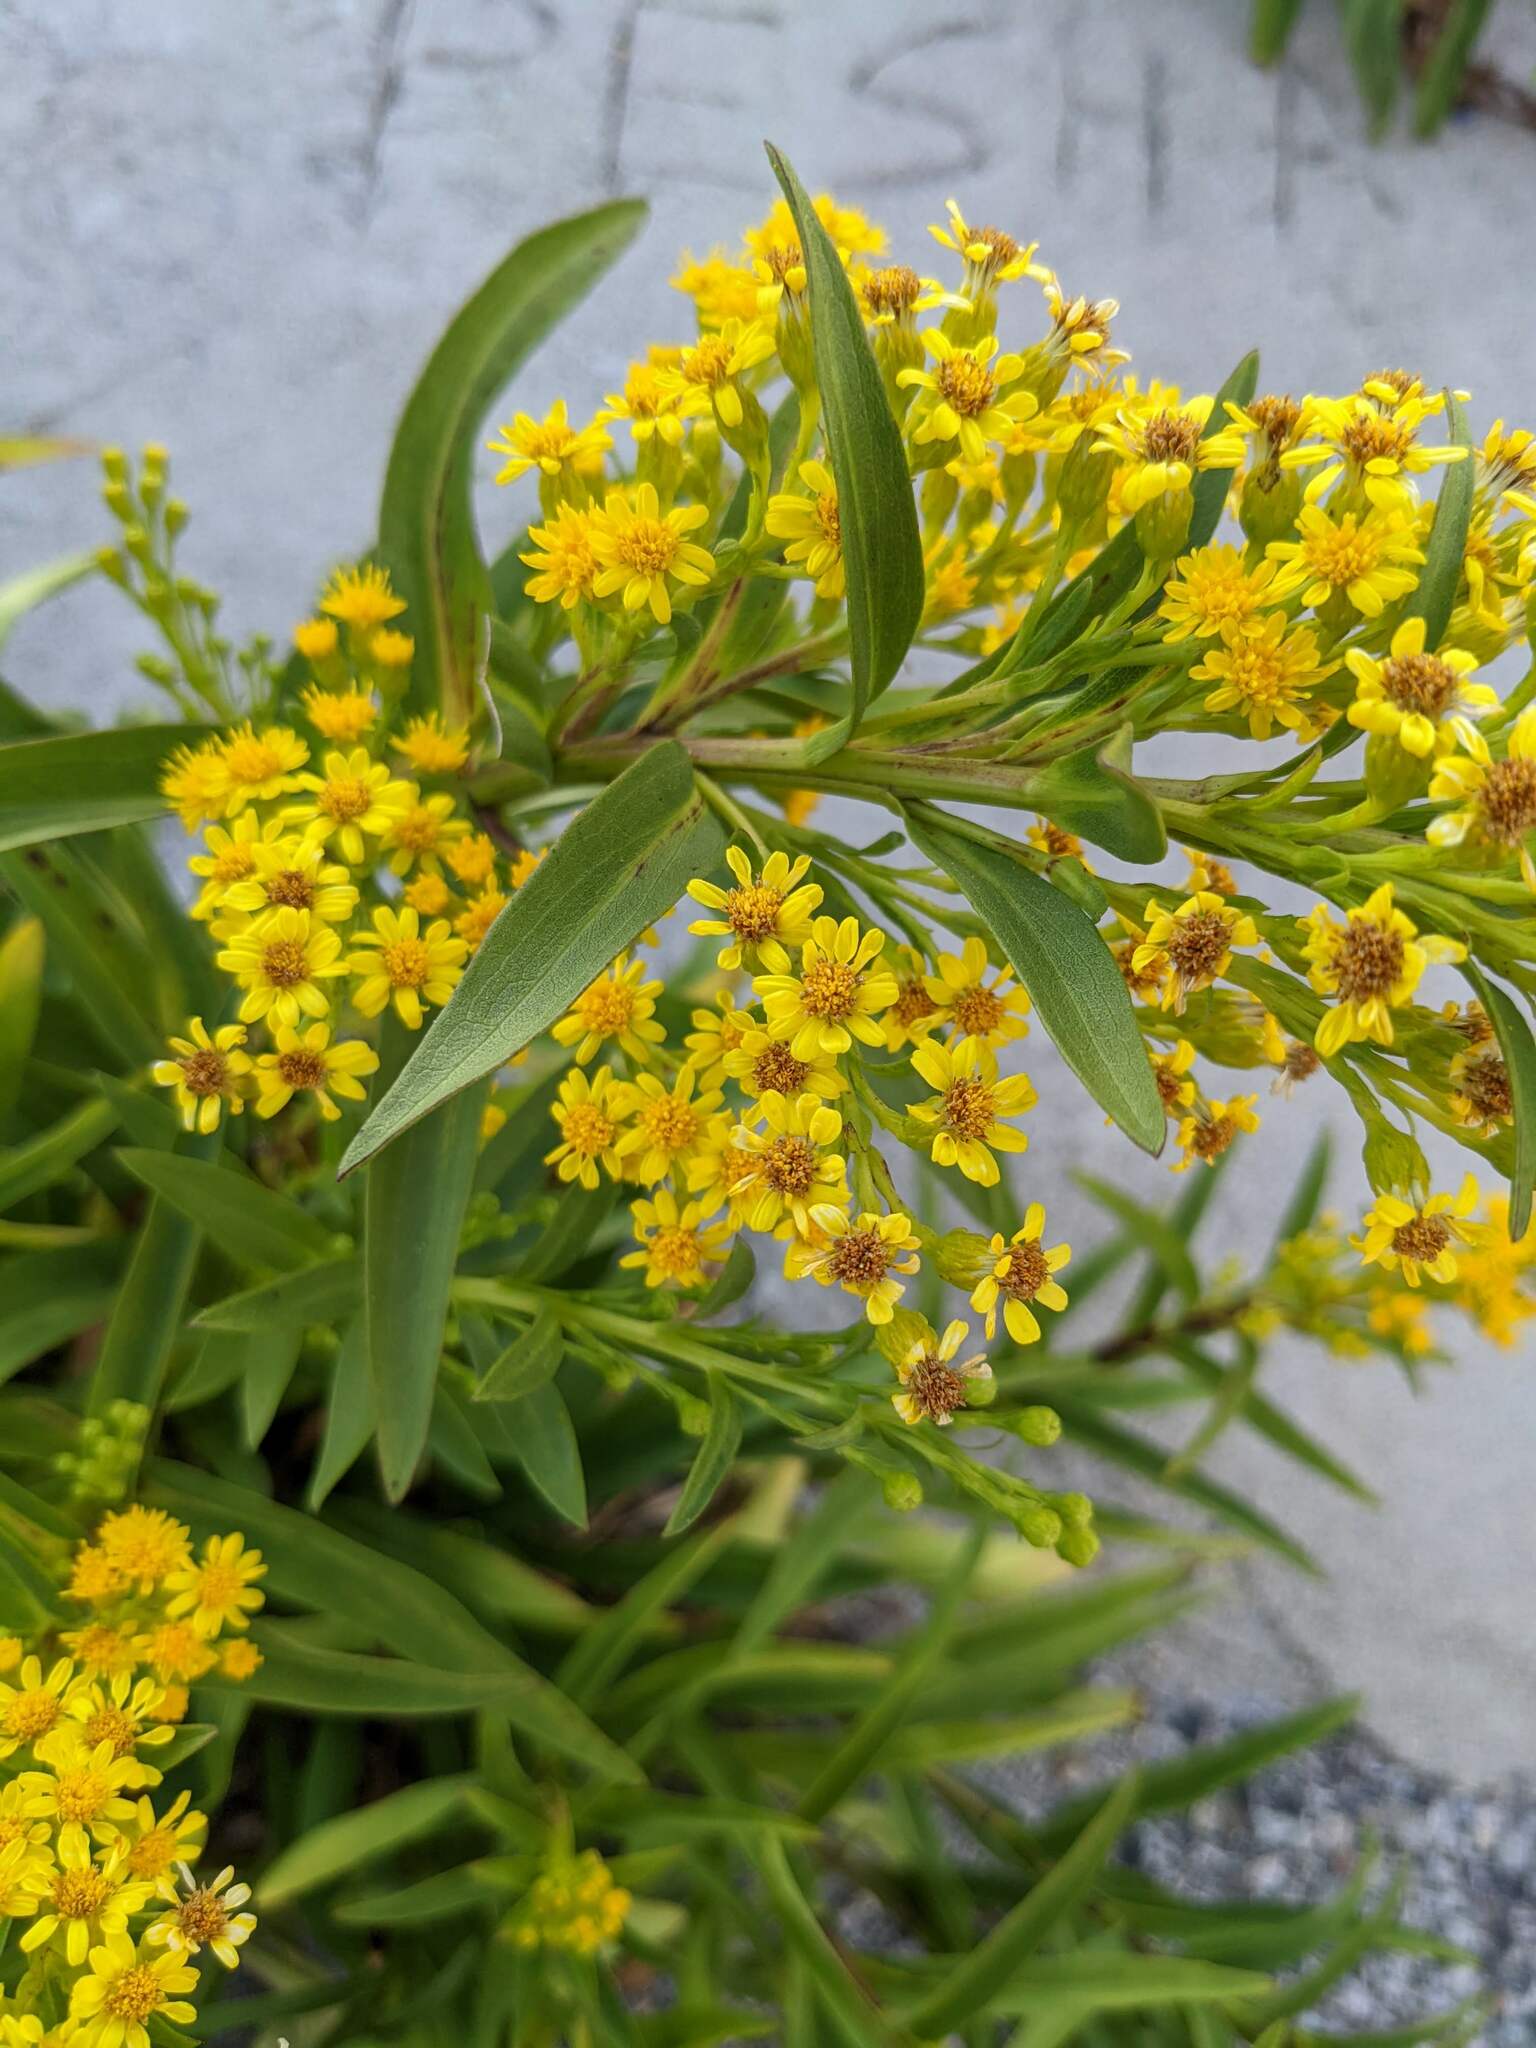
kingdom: Plantae
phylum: Tracheophyta
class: Magnoliopsida
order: Asterales
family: Asteraceae
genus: Solidago
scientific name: Solidago sempervirens
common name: Salt-marsh goldenrod
